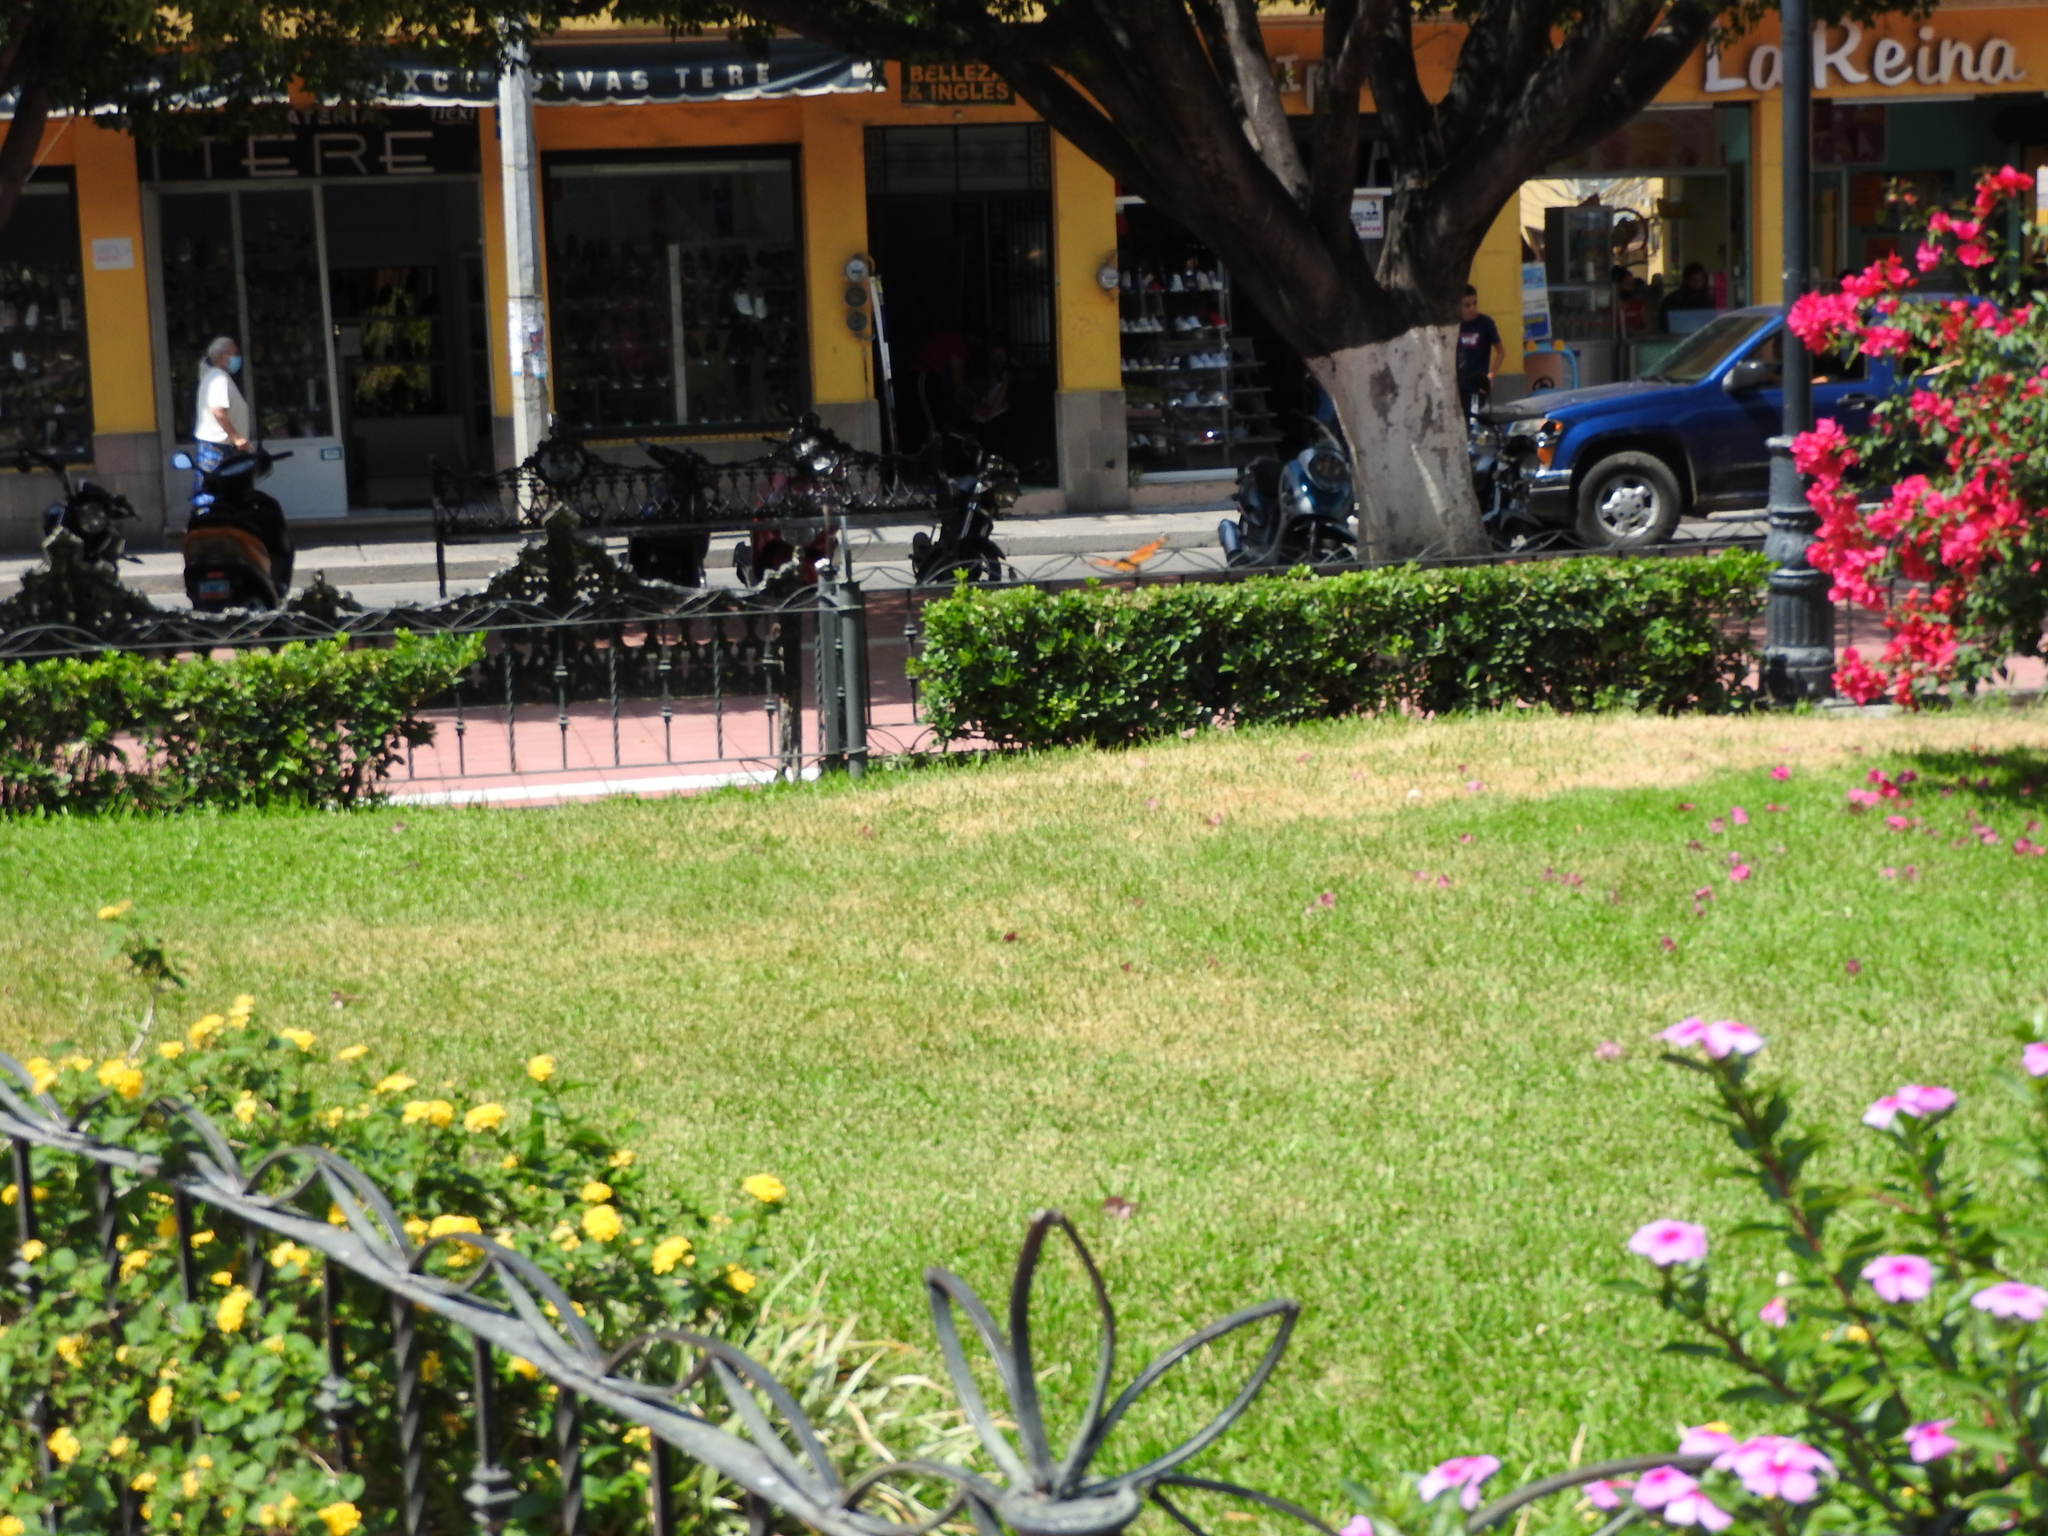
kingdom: Animalia
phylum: Arthropoda
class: Insecta
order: Lepidoptera
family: Nymphalidae
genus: Danaus
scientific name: Danaus plexippus
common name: Monarch
